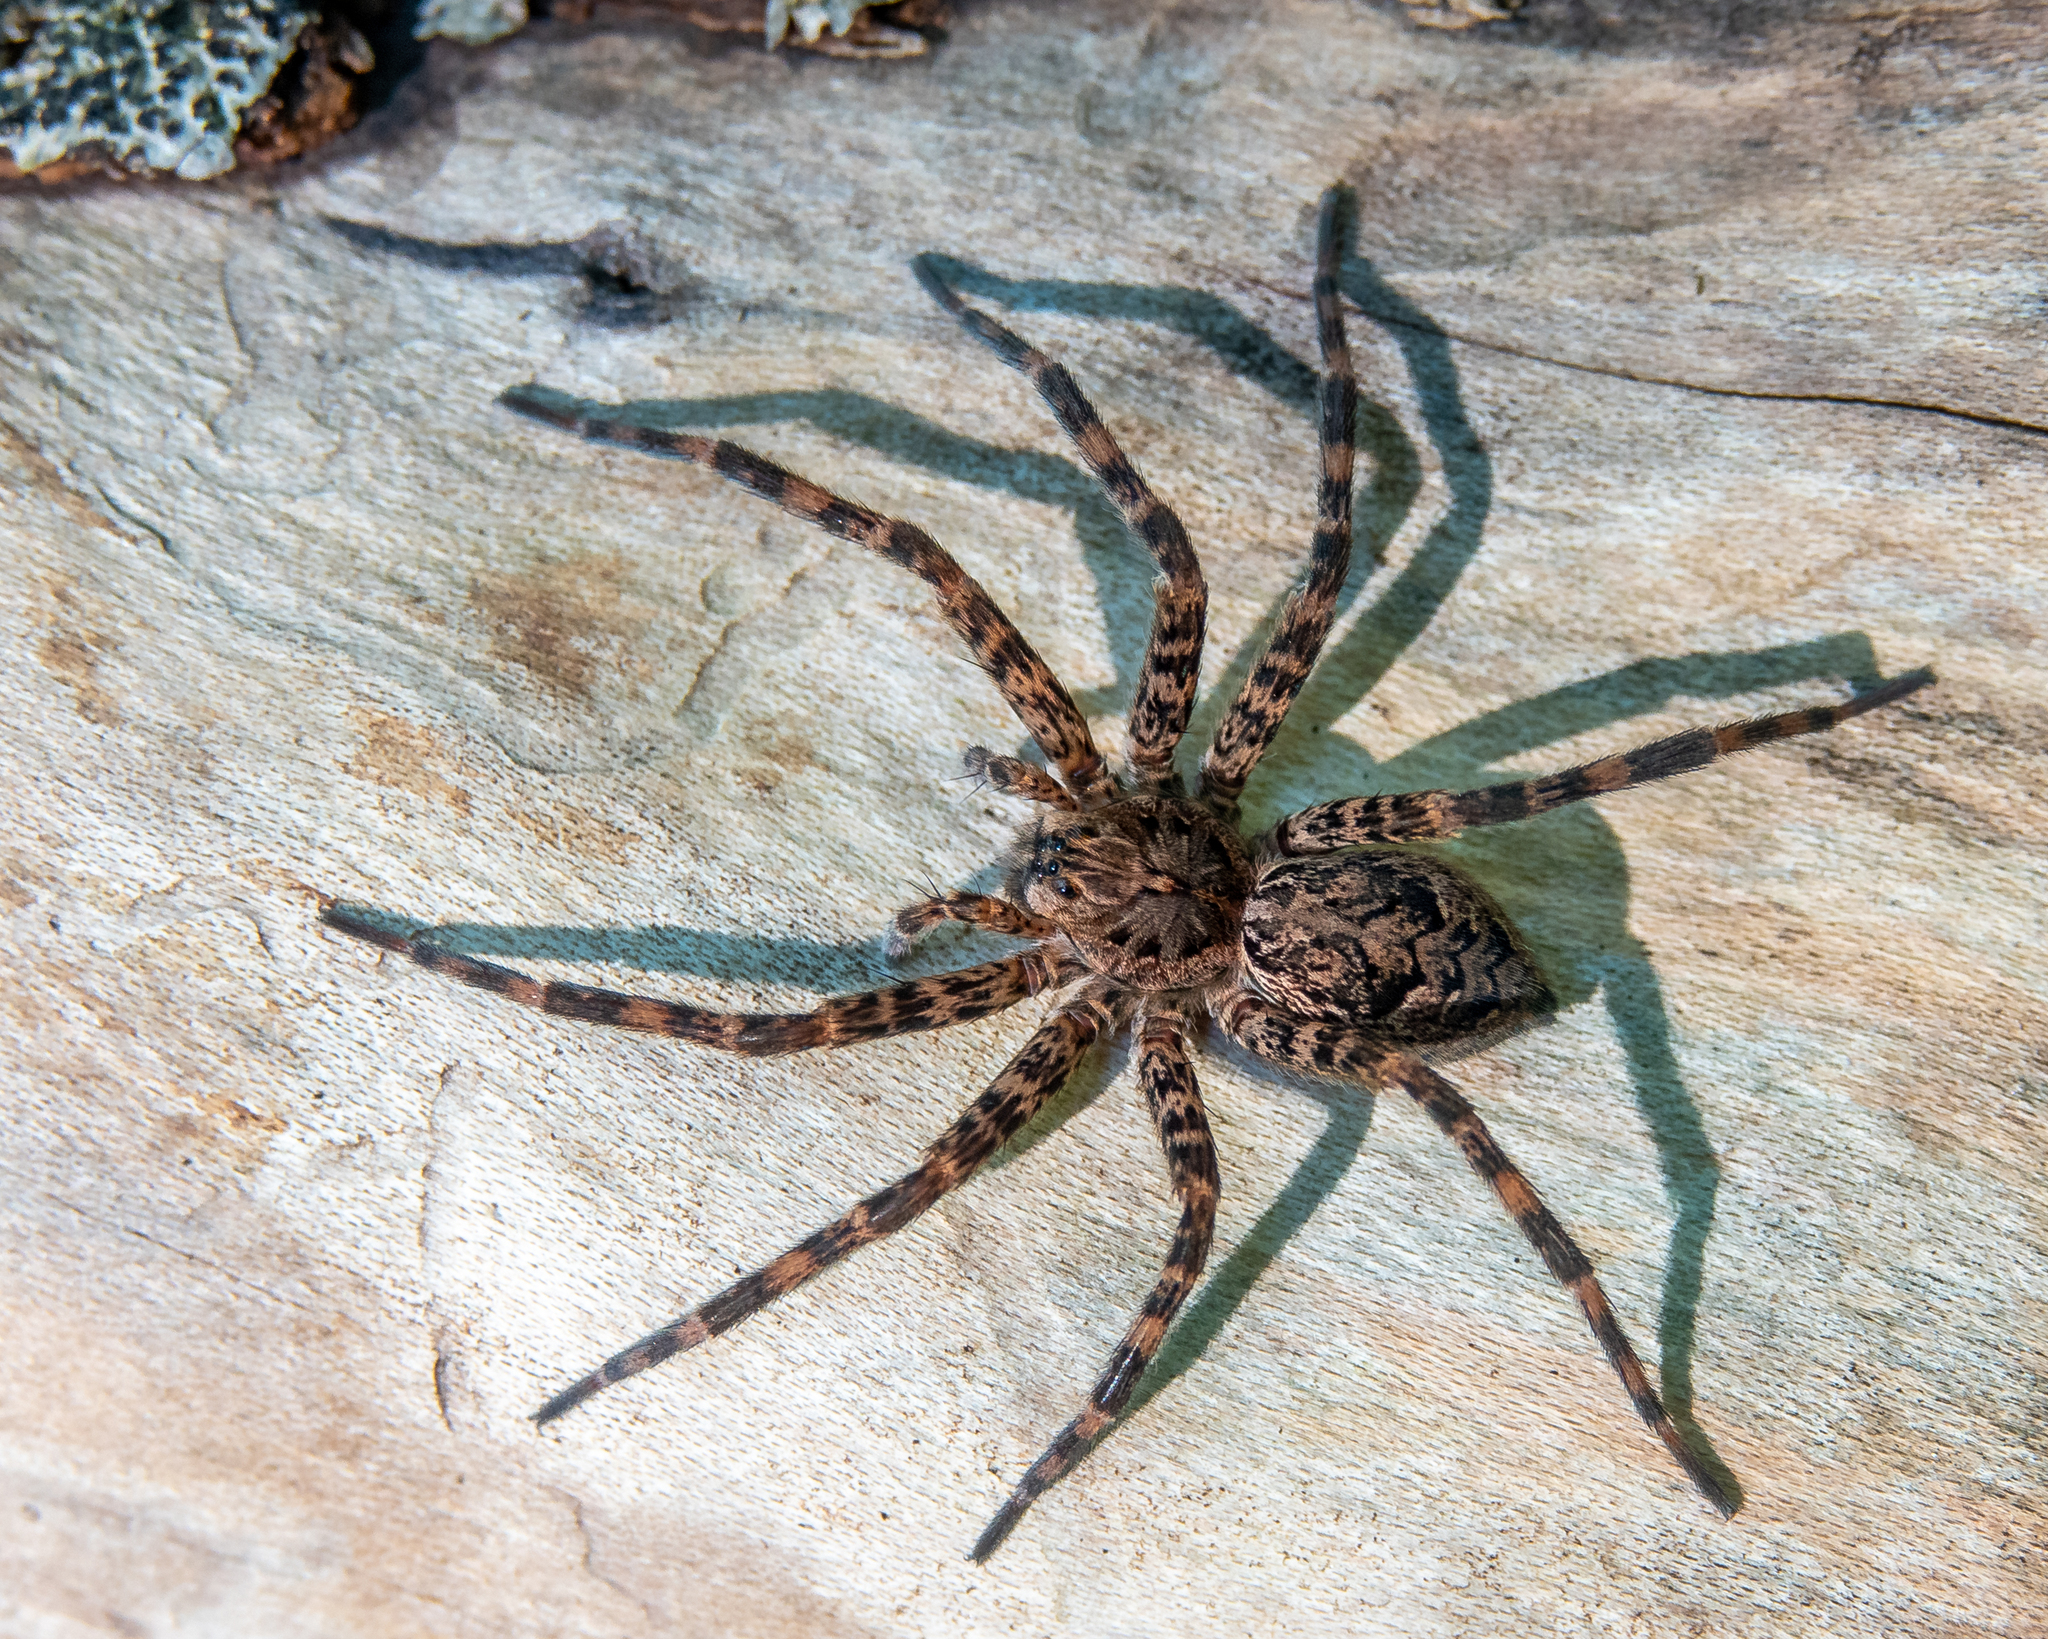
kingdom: Animalia
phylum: Arthropoda
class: Arachnida
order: Araneae
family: Pisauridae
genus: Dolomedes
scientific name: Dolomedes tenebrosus
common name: Dark fishing spider
